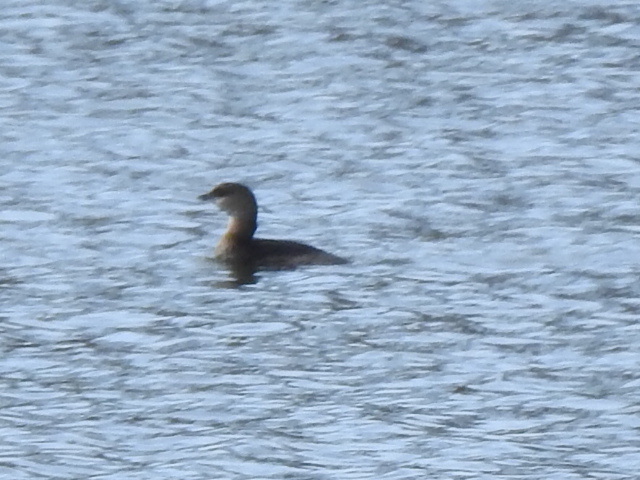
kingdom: Animalia
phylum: Chordata
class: Aves
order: Podicipediformes
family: Podicipedidae
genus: Podilymbus
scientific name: Podilymbus podiceps
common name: Pied-billed grebe
